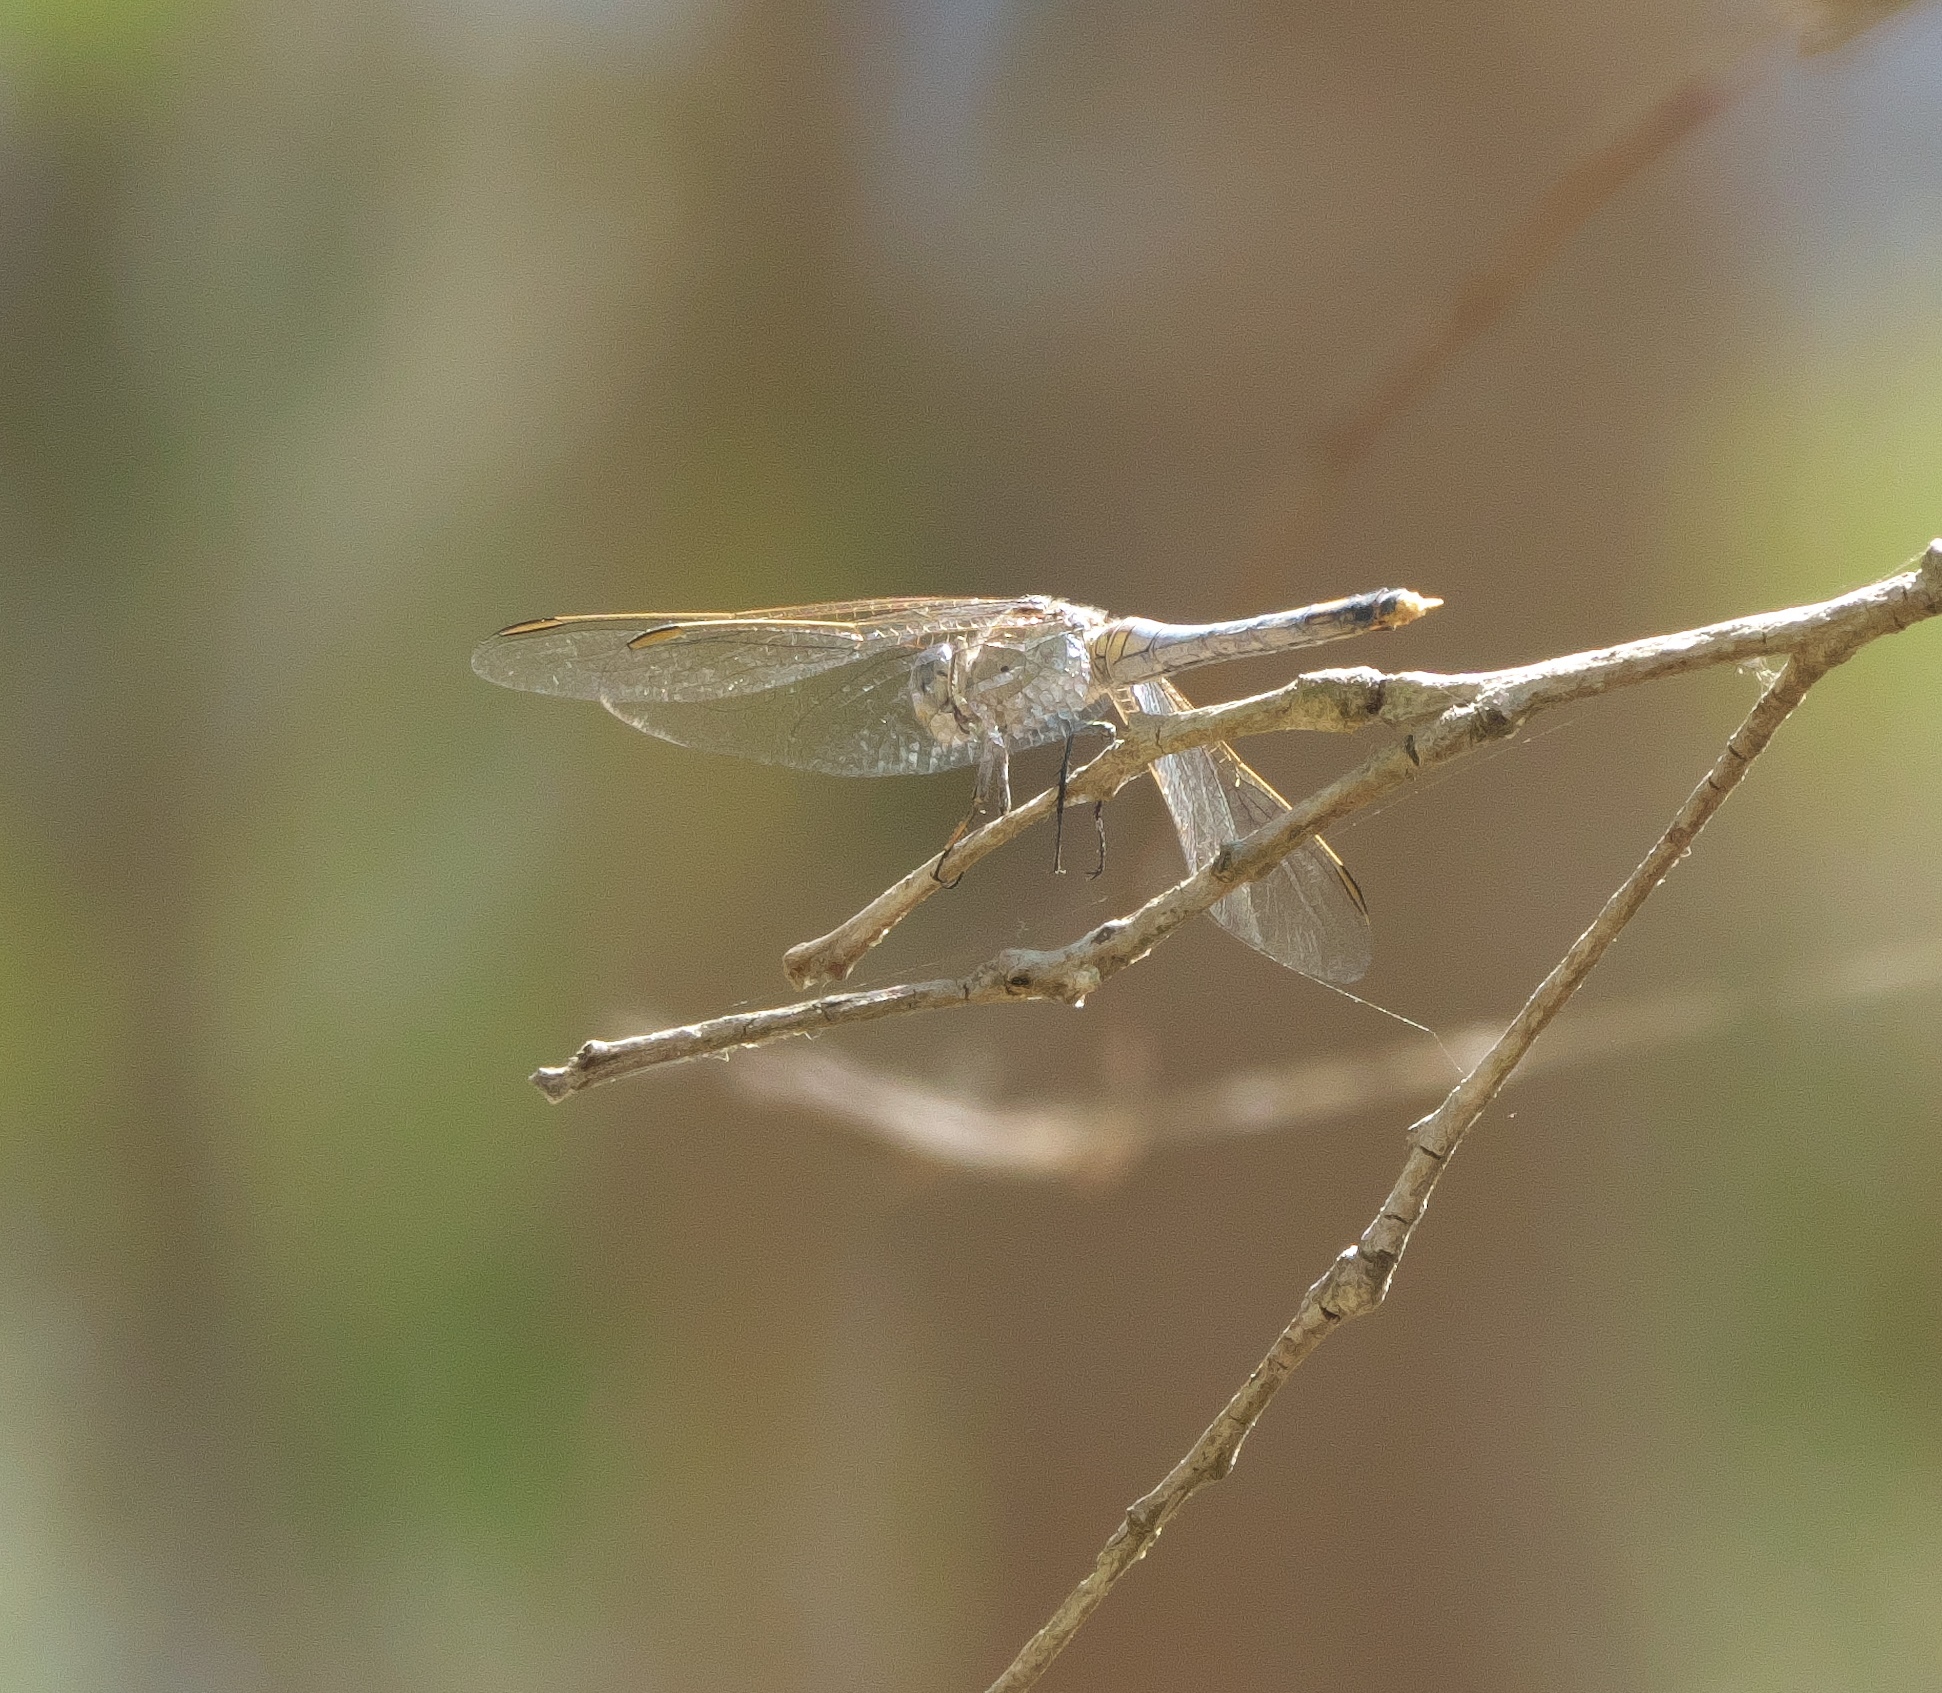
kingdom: Animalia
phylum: Arthropoda
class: Insecta
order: Odonata
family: Libellulidae
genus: Orthetrum
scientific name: Orthetrum caledonicum
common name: Blue skimmer
